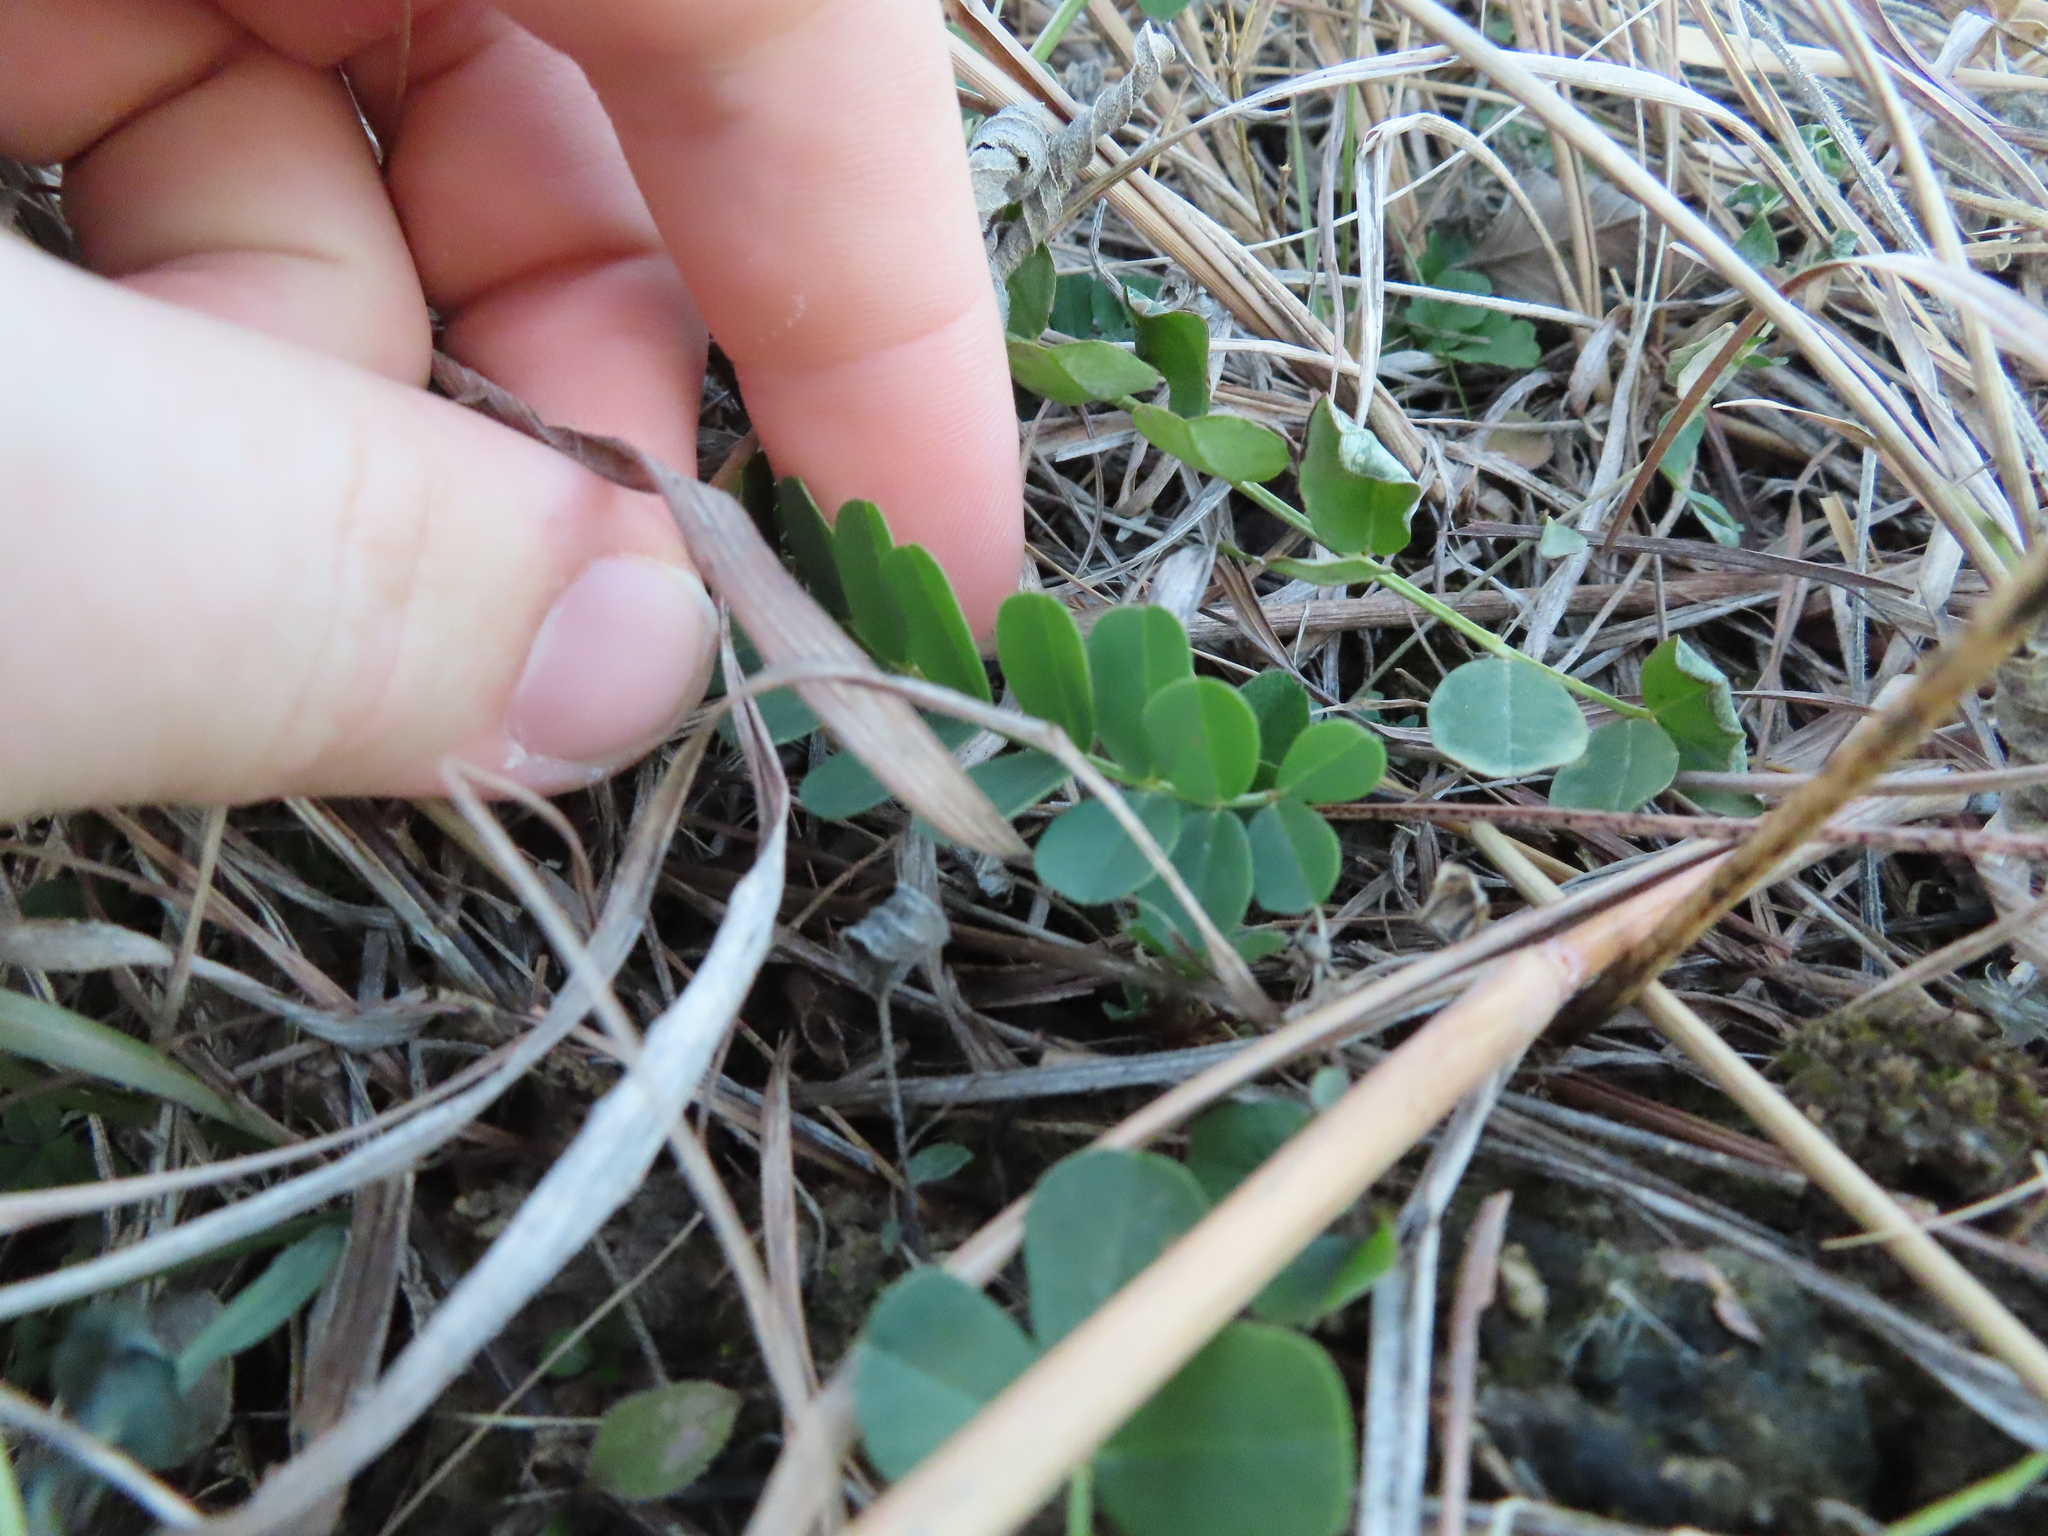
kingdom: Plantae
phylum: Tracheophyta
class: Magnoliopsida
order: Fabales
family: Fabaceae
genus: Coronilla
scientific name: Coronilla varia
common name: Crownvetch
